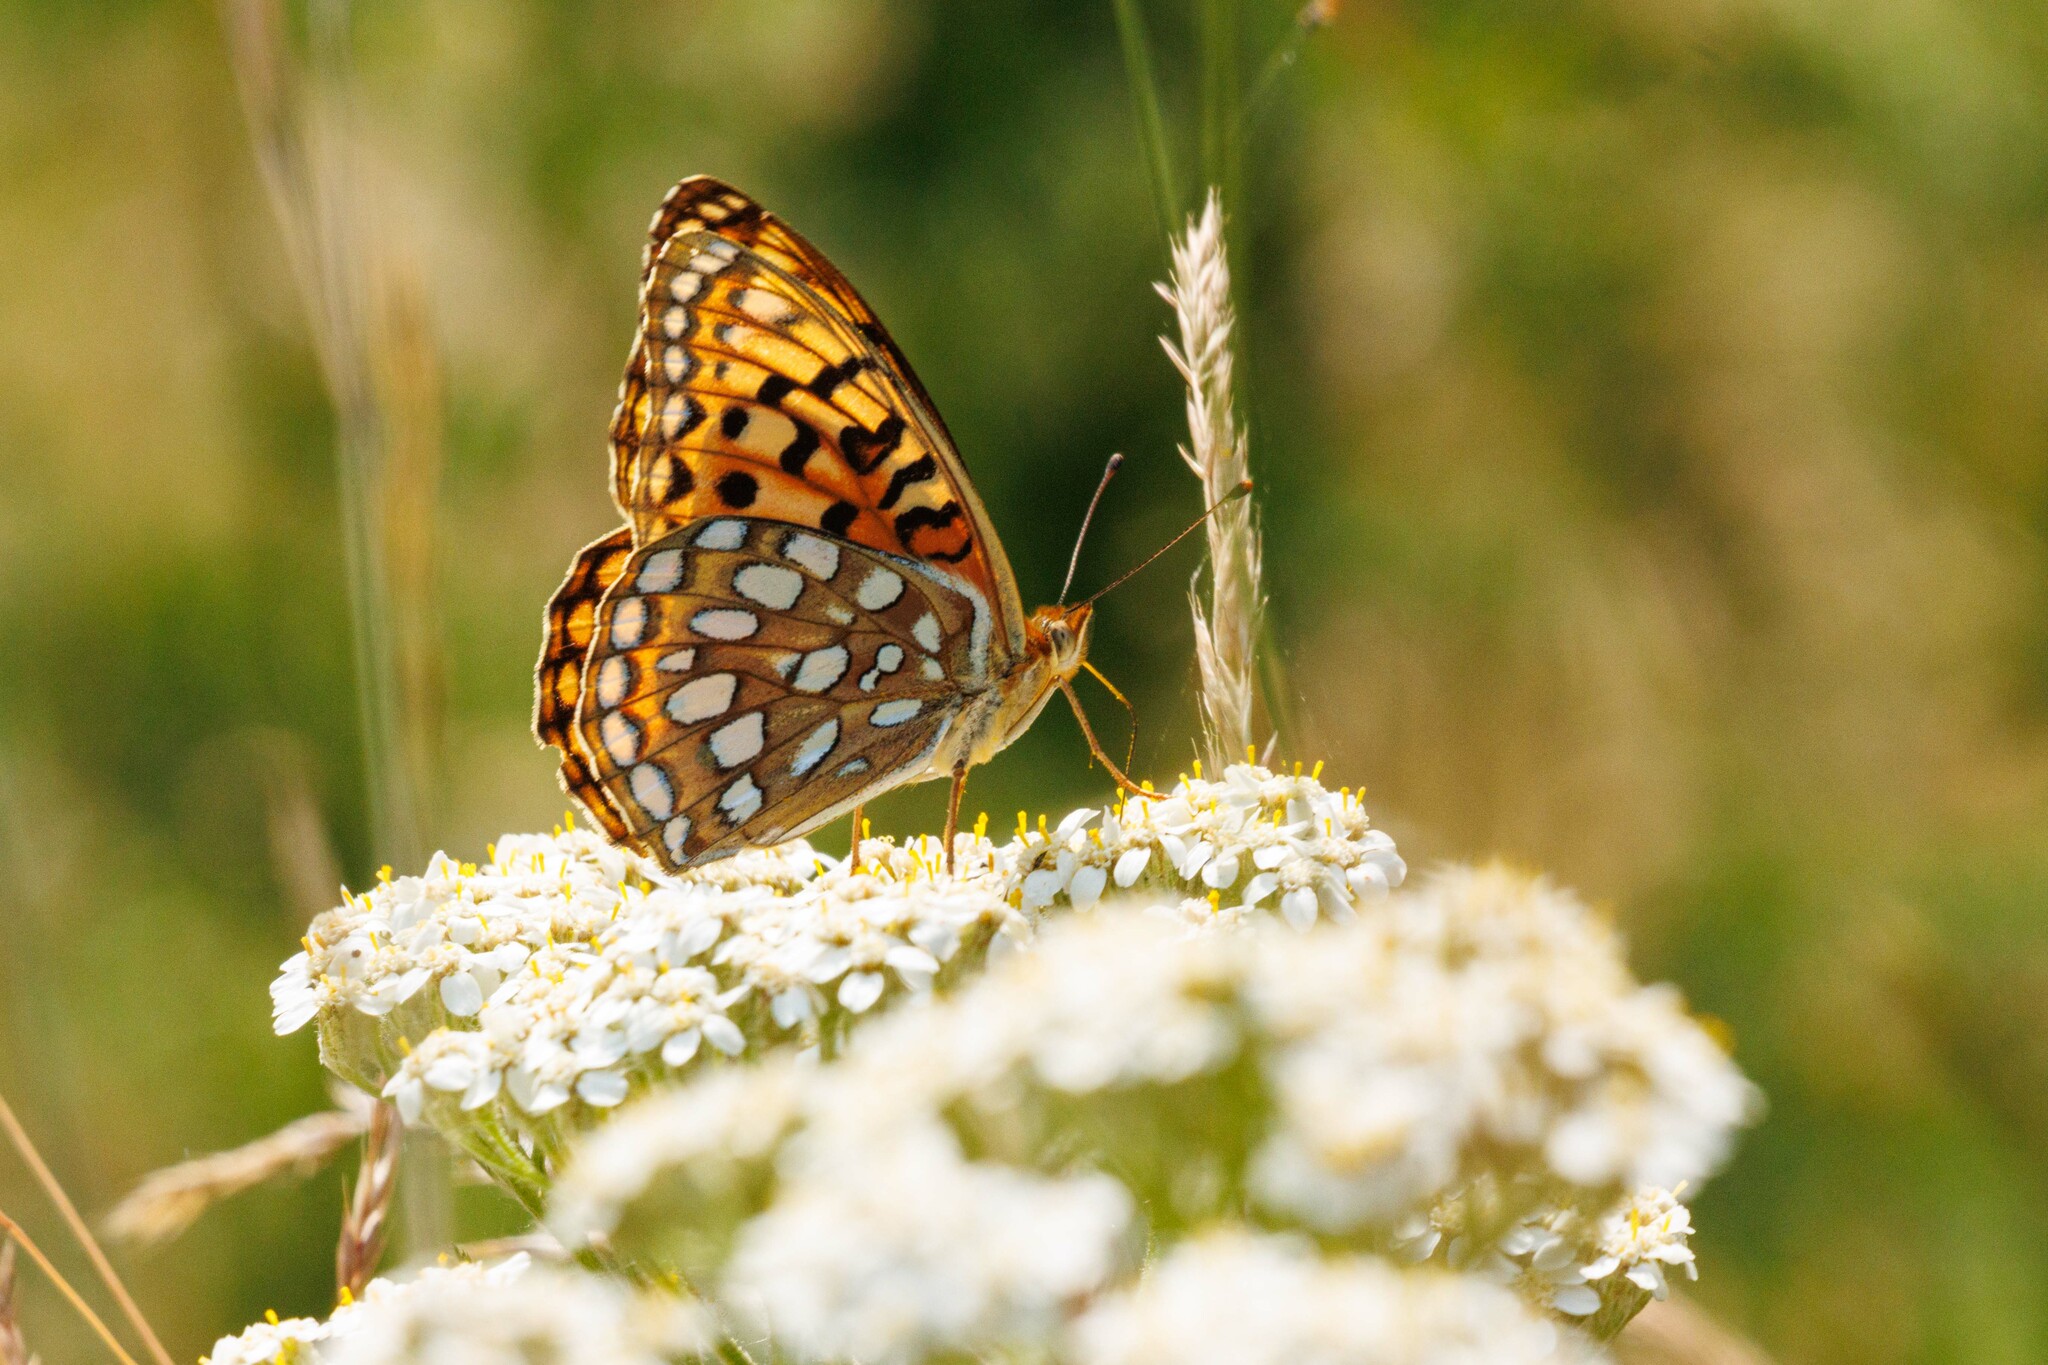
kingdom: Animalia
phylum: Arthropoda
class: Insecta
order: Lepidoptera
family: Nymphalidae
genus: Argynnis
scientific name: Argynnis coronis
